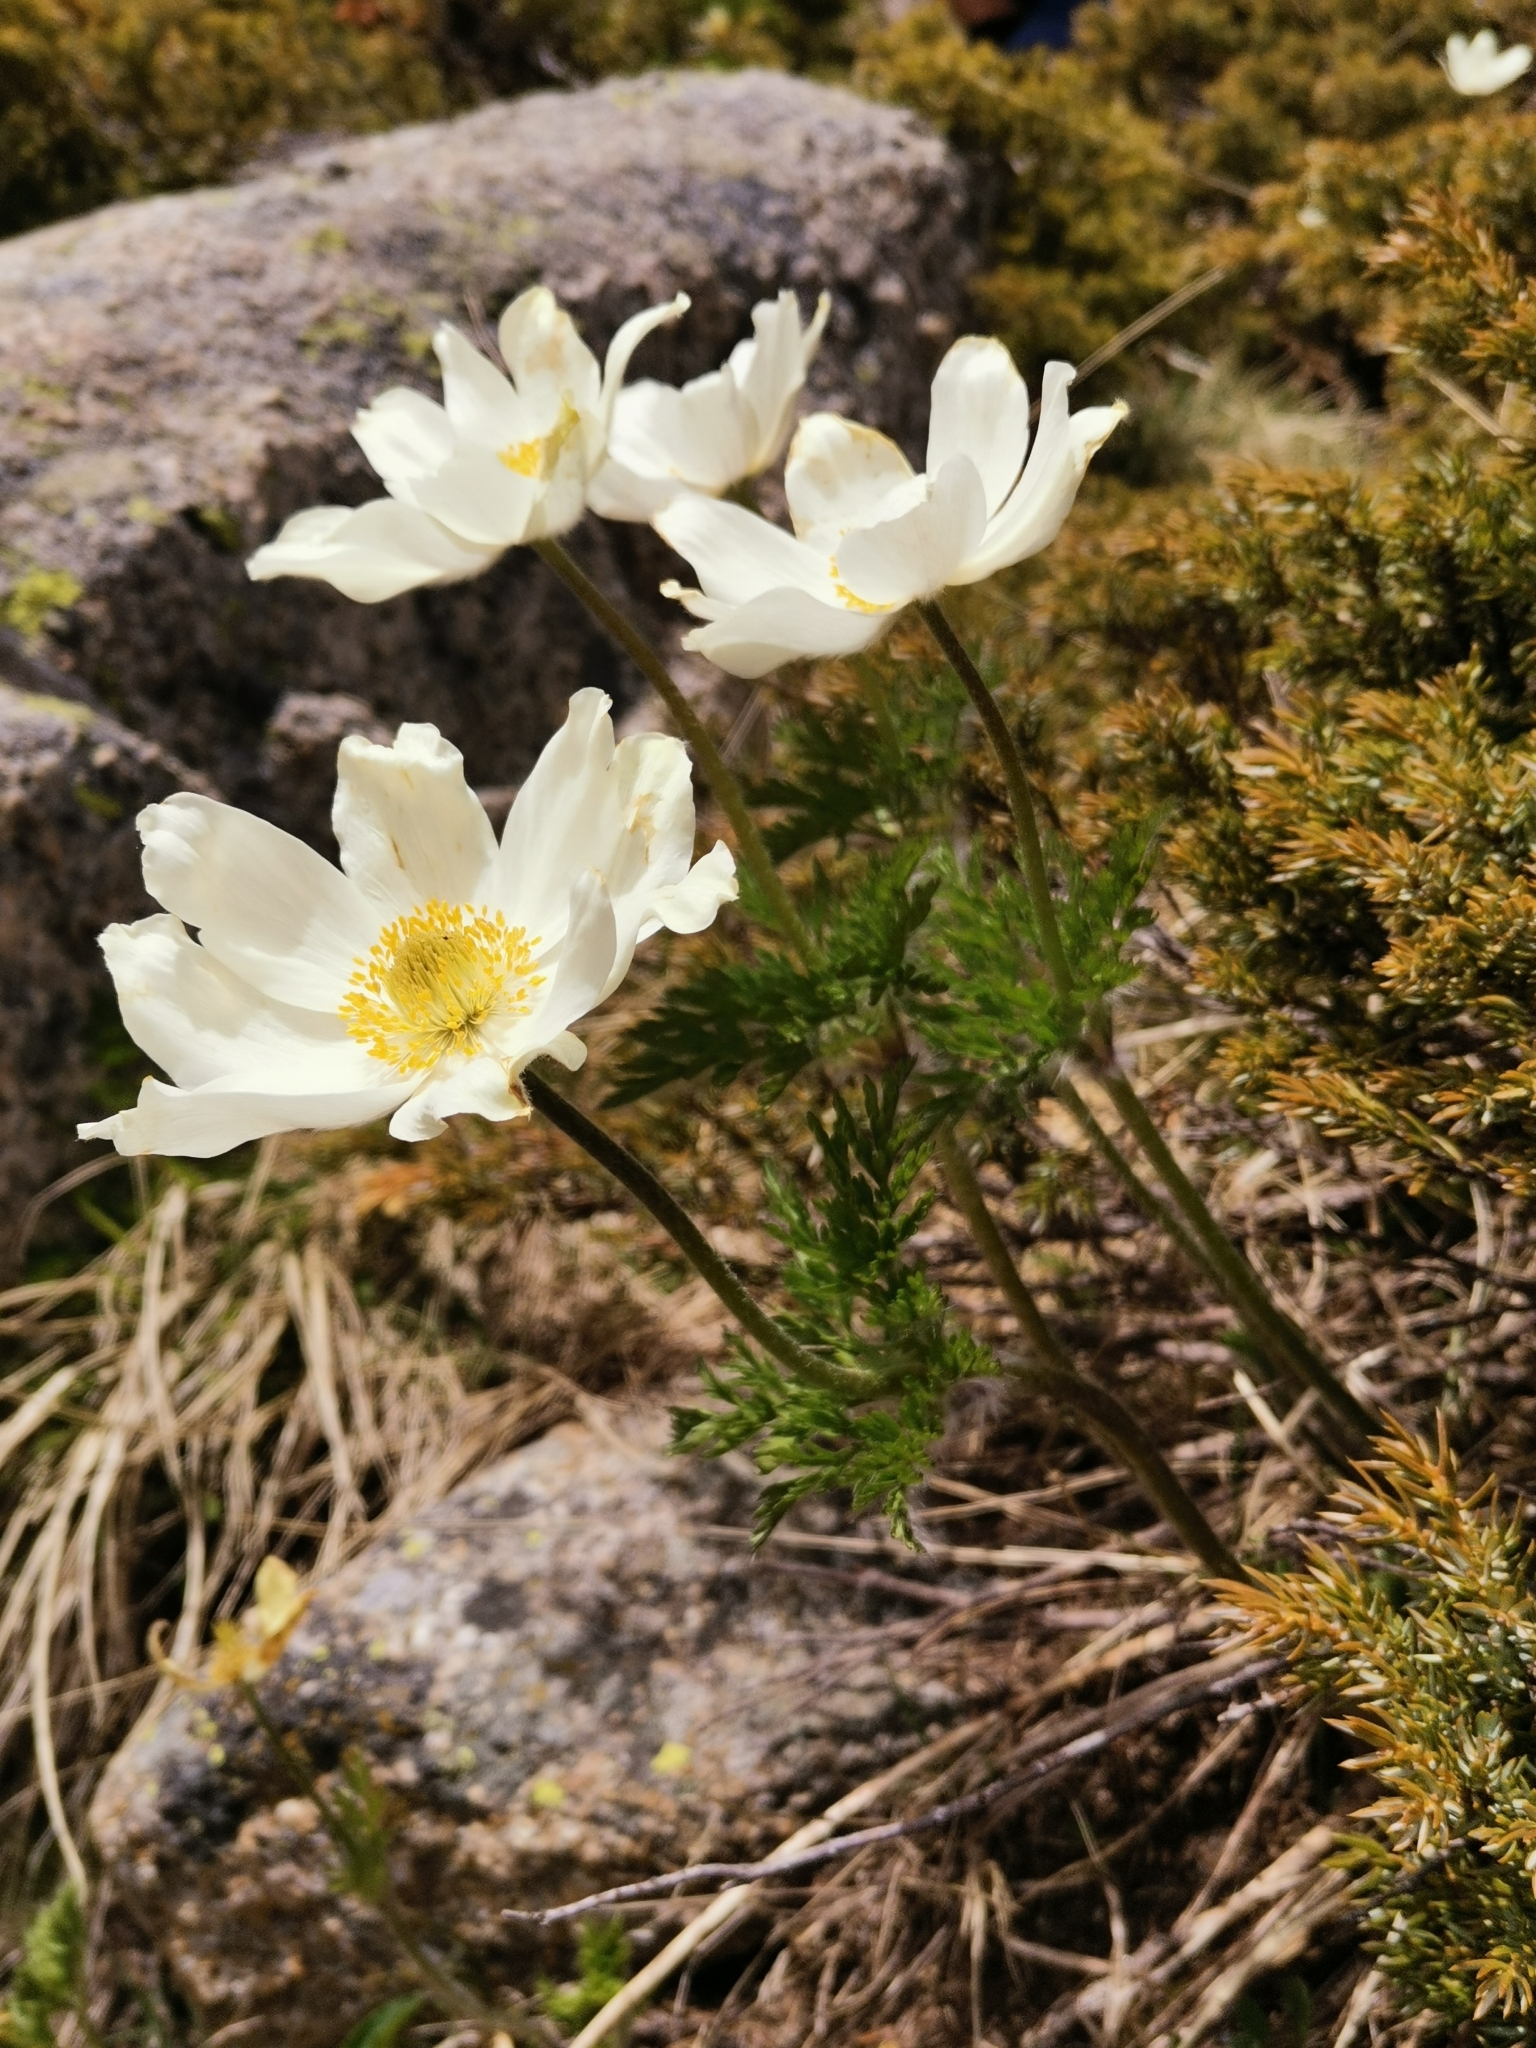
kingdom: Plantae
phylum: Tracheophyta
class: Magnoliopsida
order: Ranunculales
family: Ranunculaceae
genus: Pulsatilla
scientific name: Pulsatilla alpina
